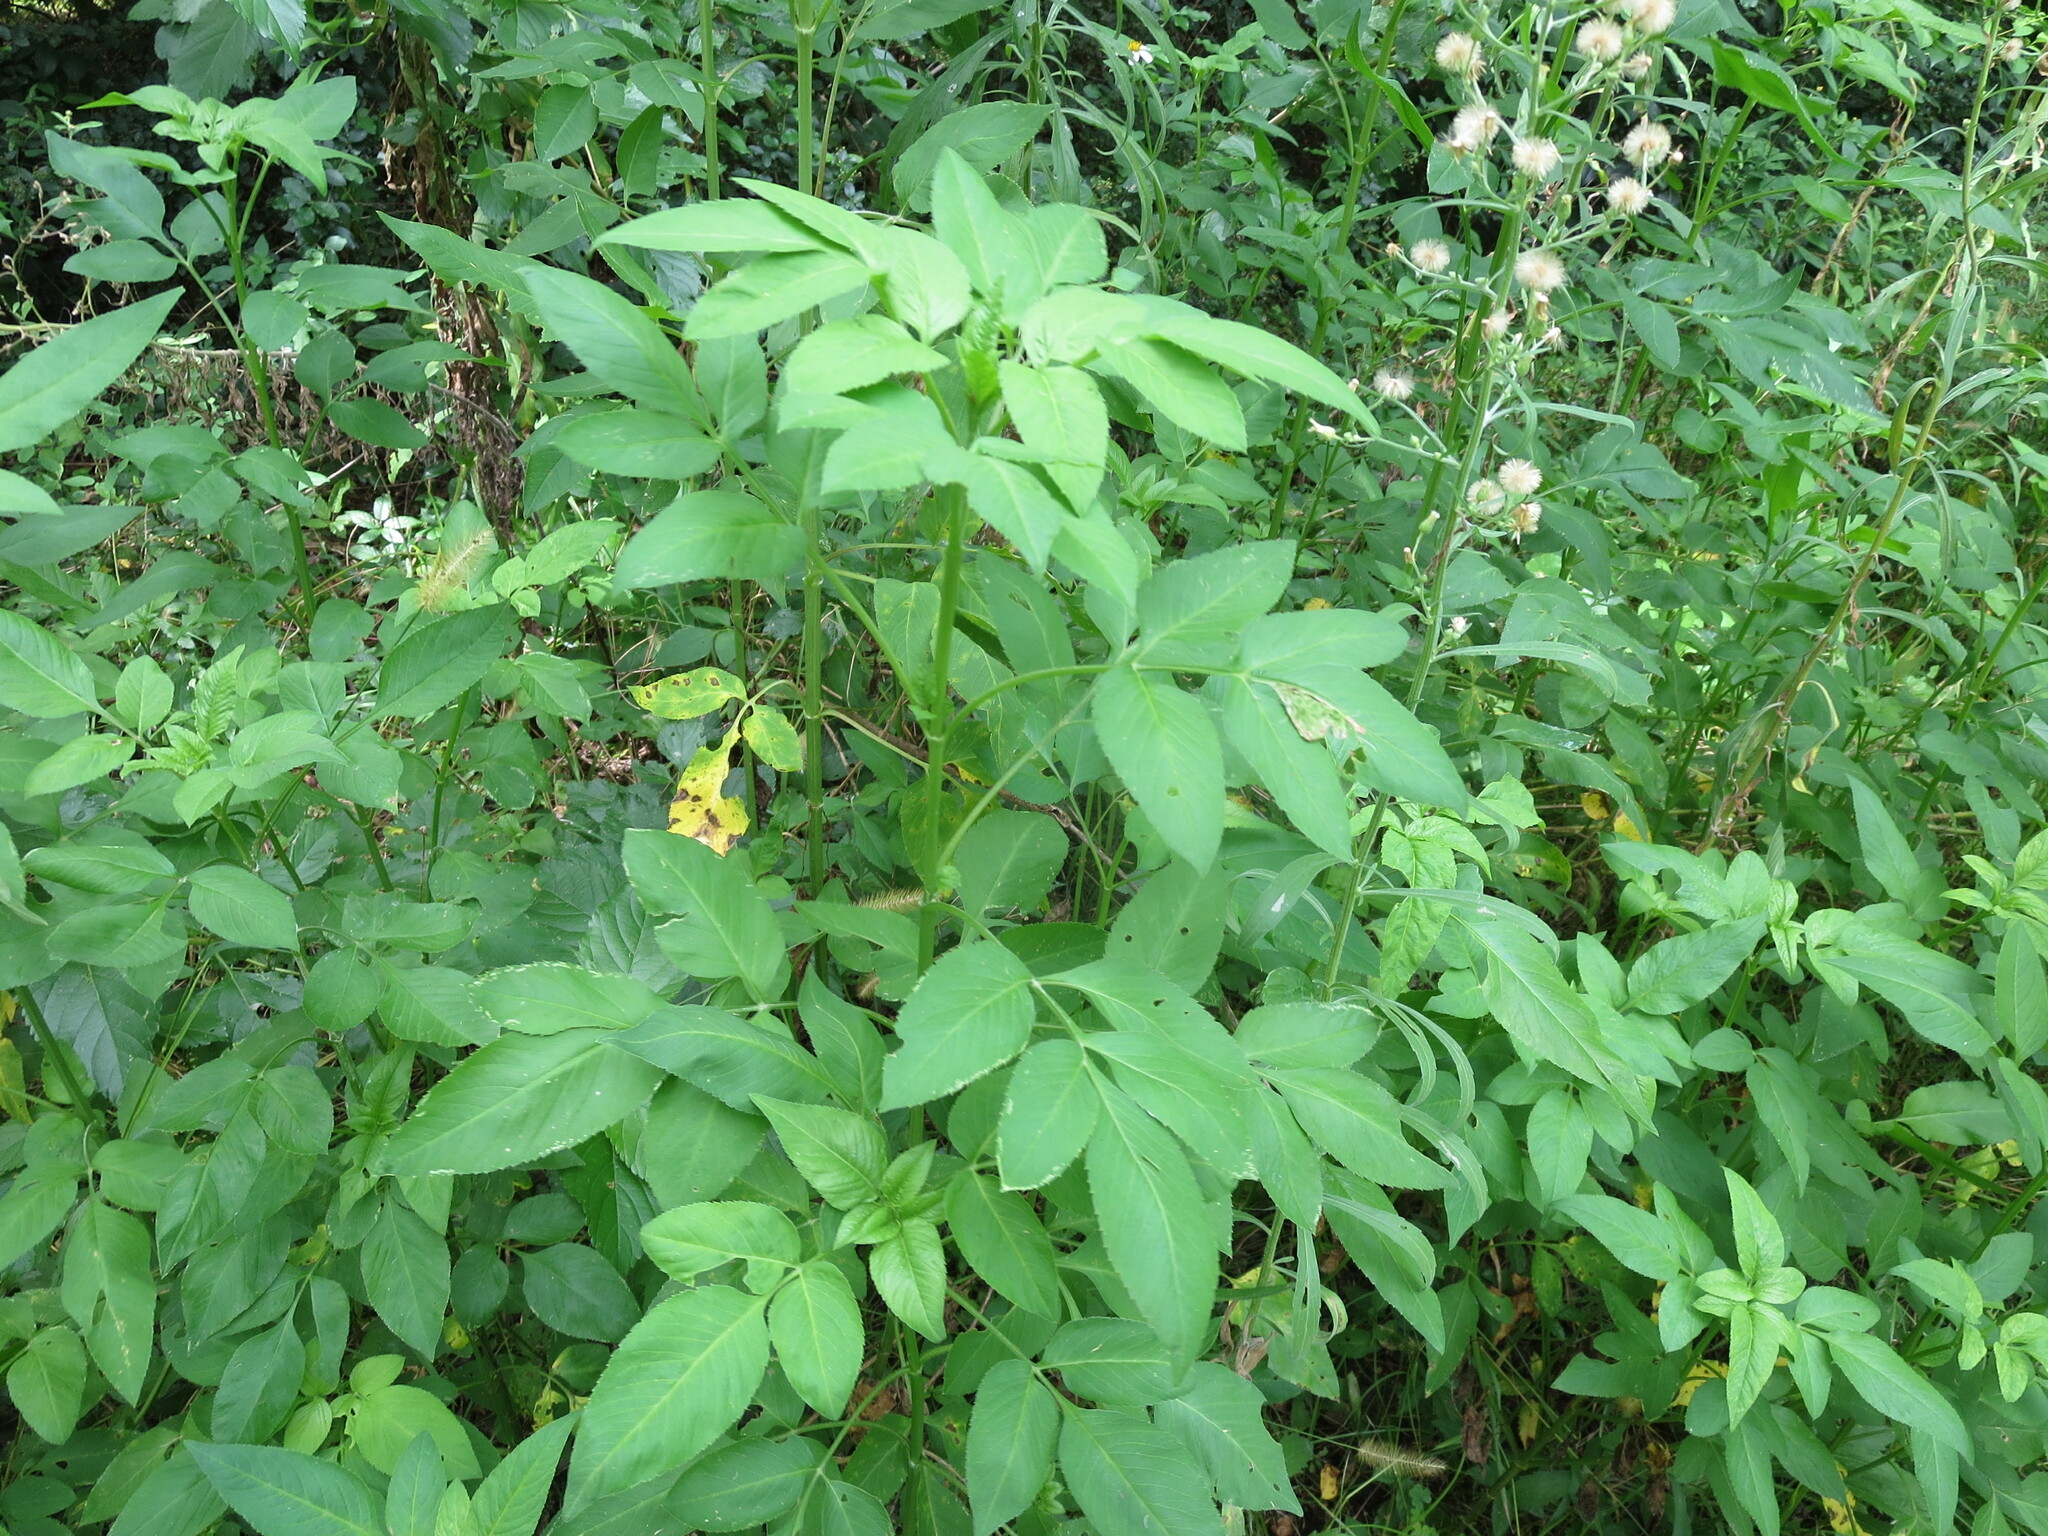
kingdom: Plantae
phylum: Tracheophyta
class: Magnoliopsida
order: Asterales
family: Asteraceae
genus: Bidens
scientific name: Bidens alba
